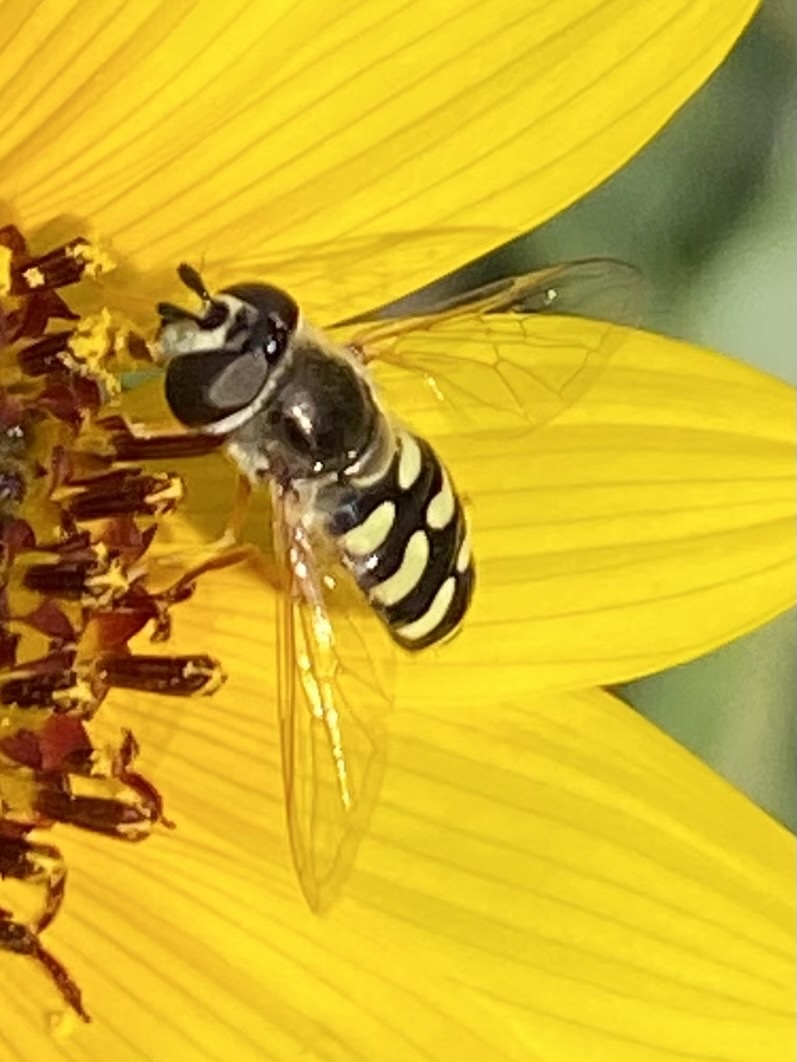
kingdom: Animalia
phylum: Arthropoda
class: Insecta
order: Diptera
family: Syrphidae
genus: Eupeodes
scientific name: Eupeodes volucris
